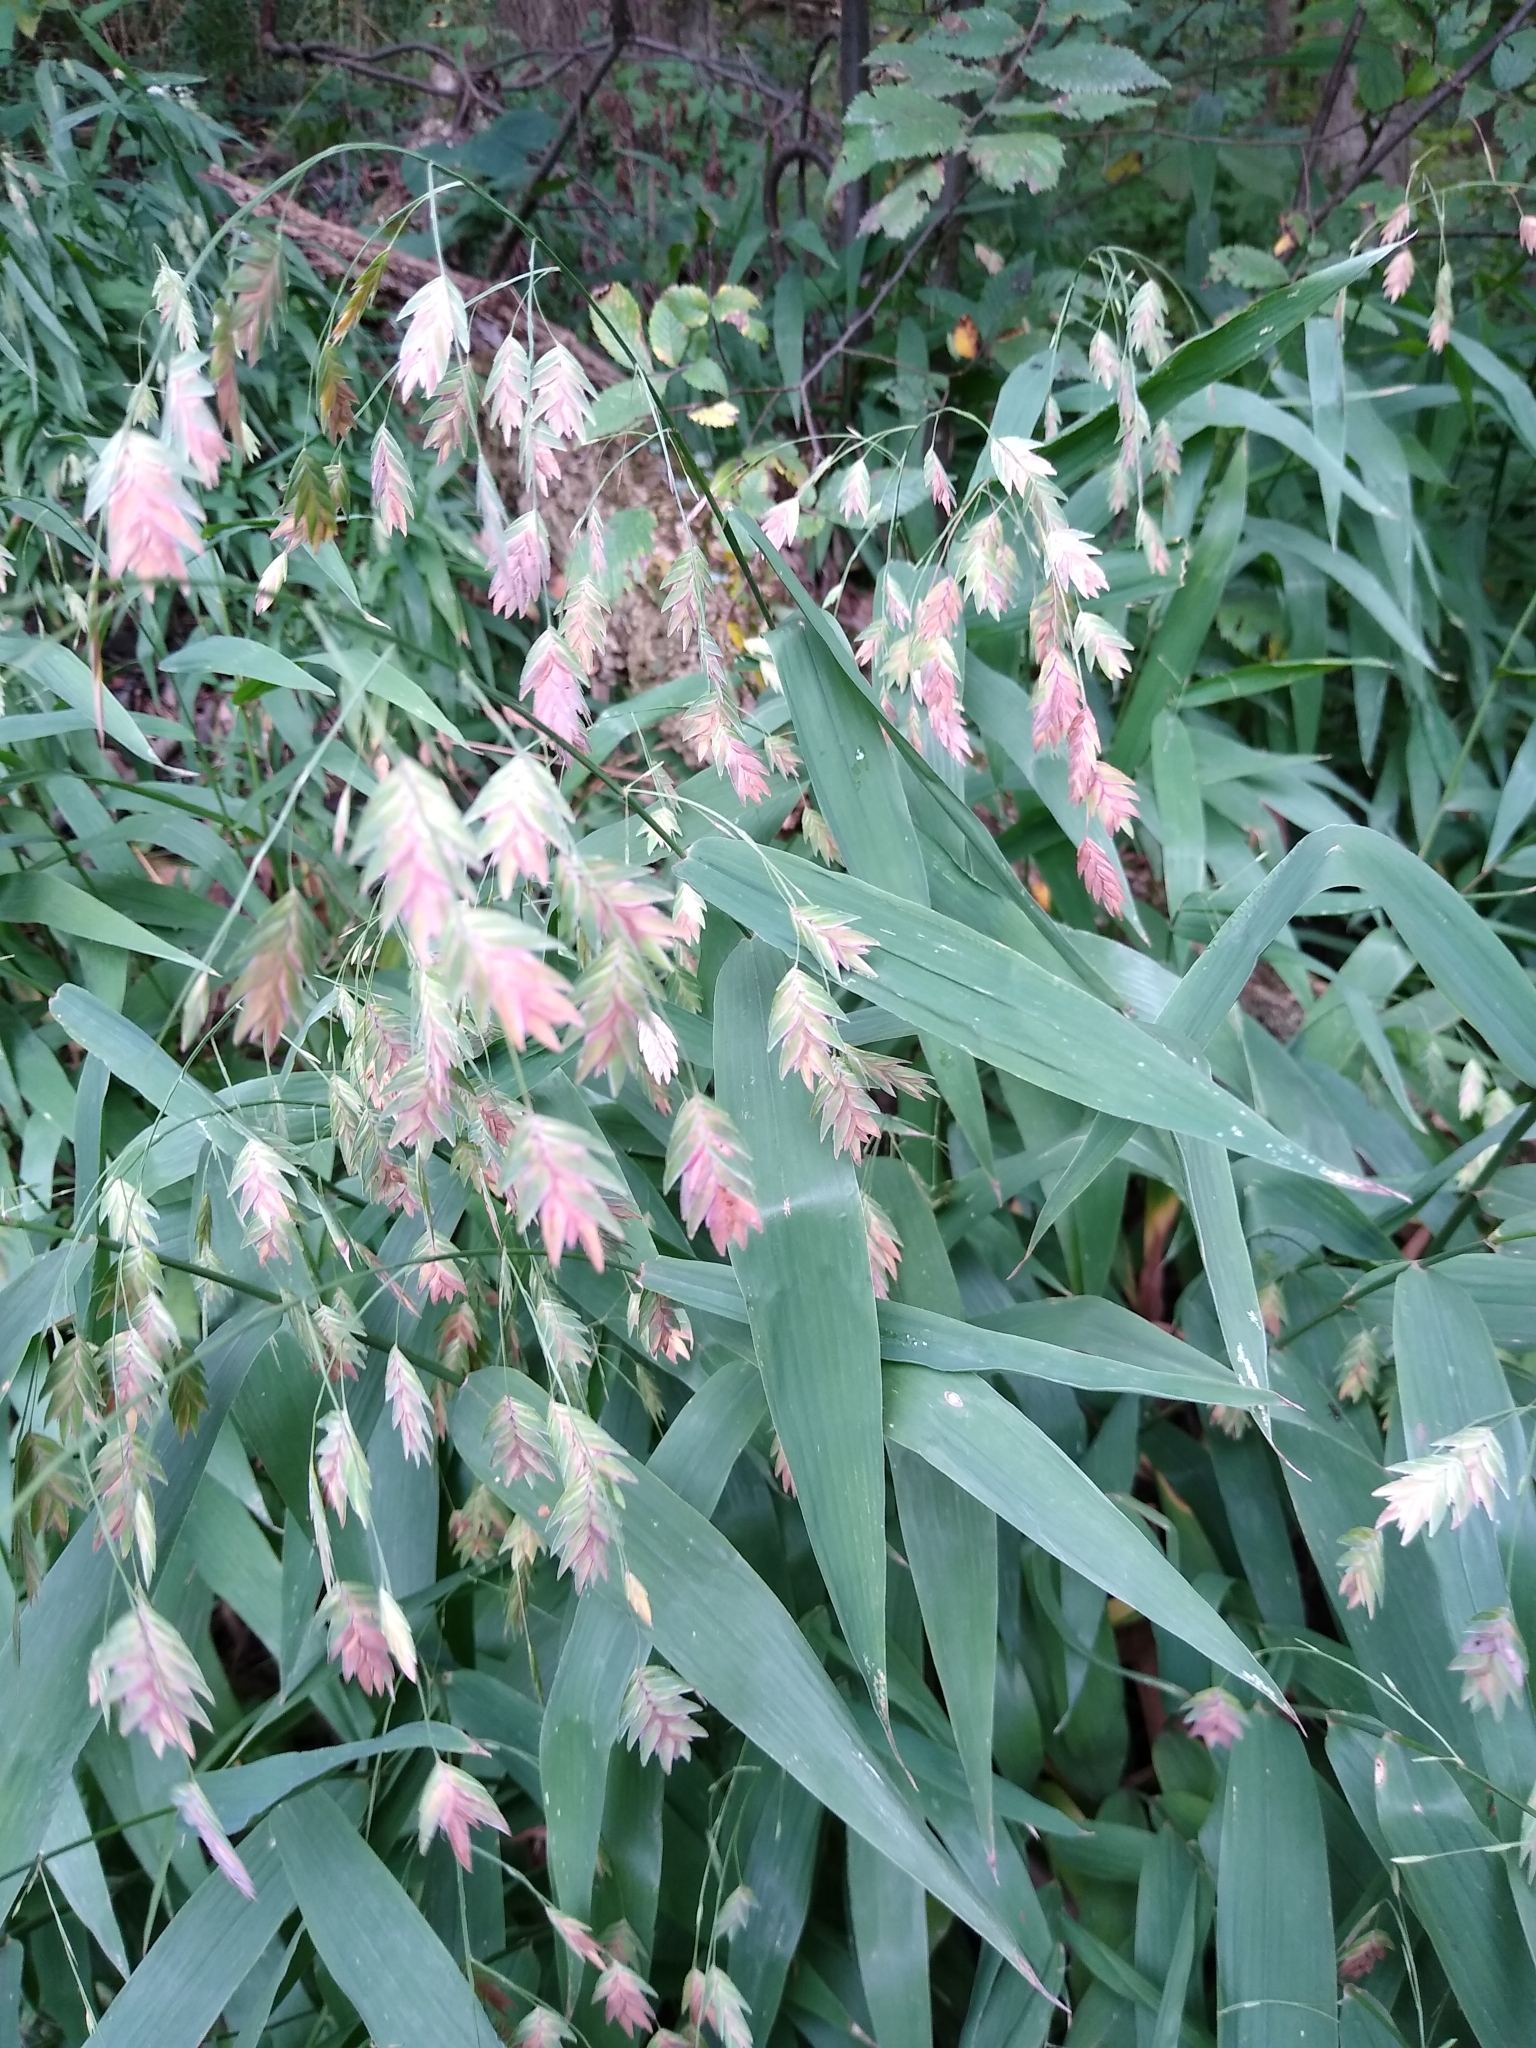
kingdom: Plantae
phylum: Tracheophyta
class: Liliopsida
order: Poales
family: Poaceae
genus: Chasmanthium
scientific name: Chasmanthium latifolium
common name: Broad-leaved chasmanthium
